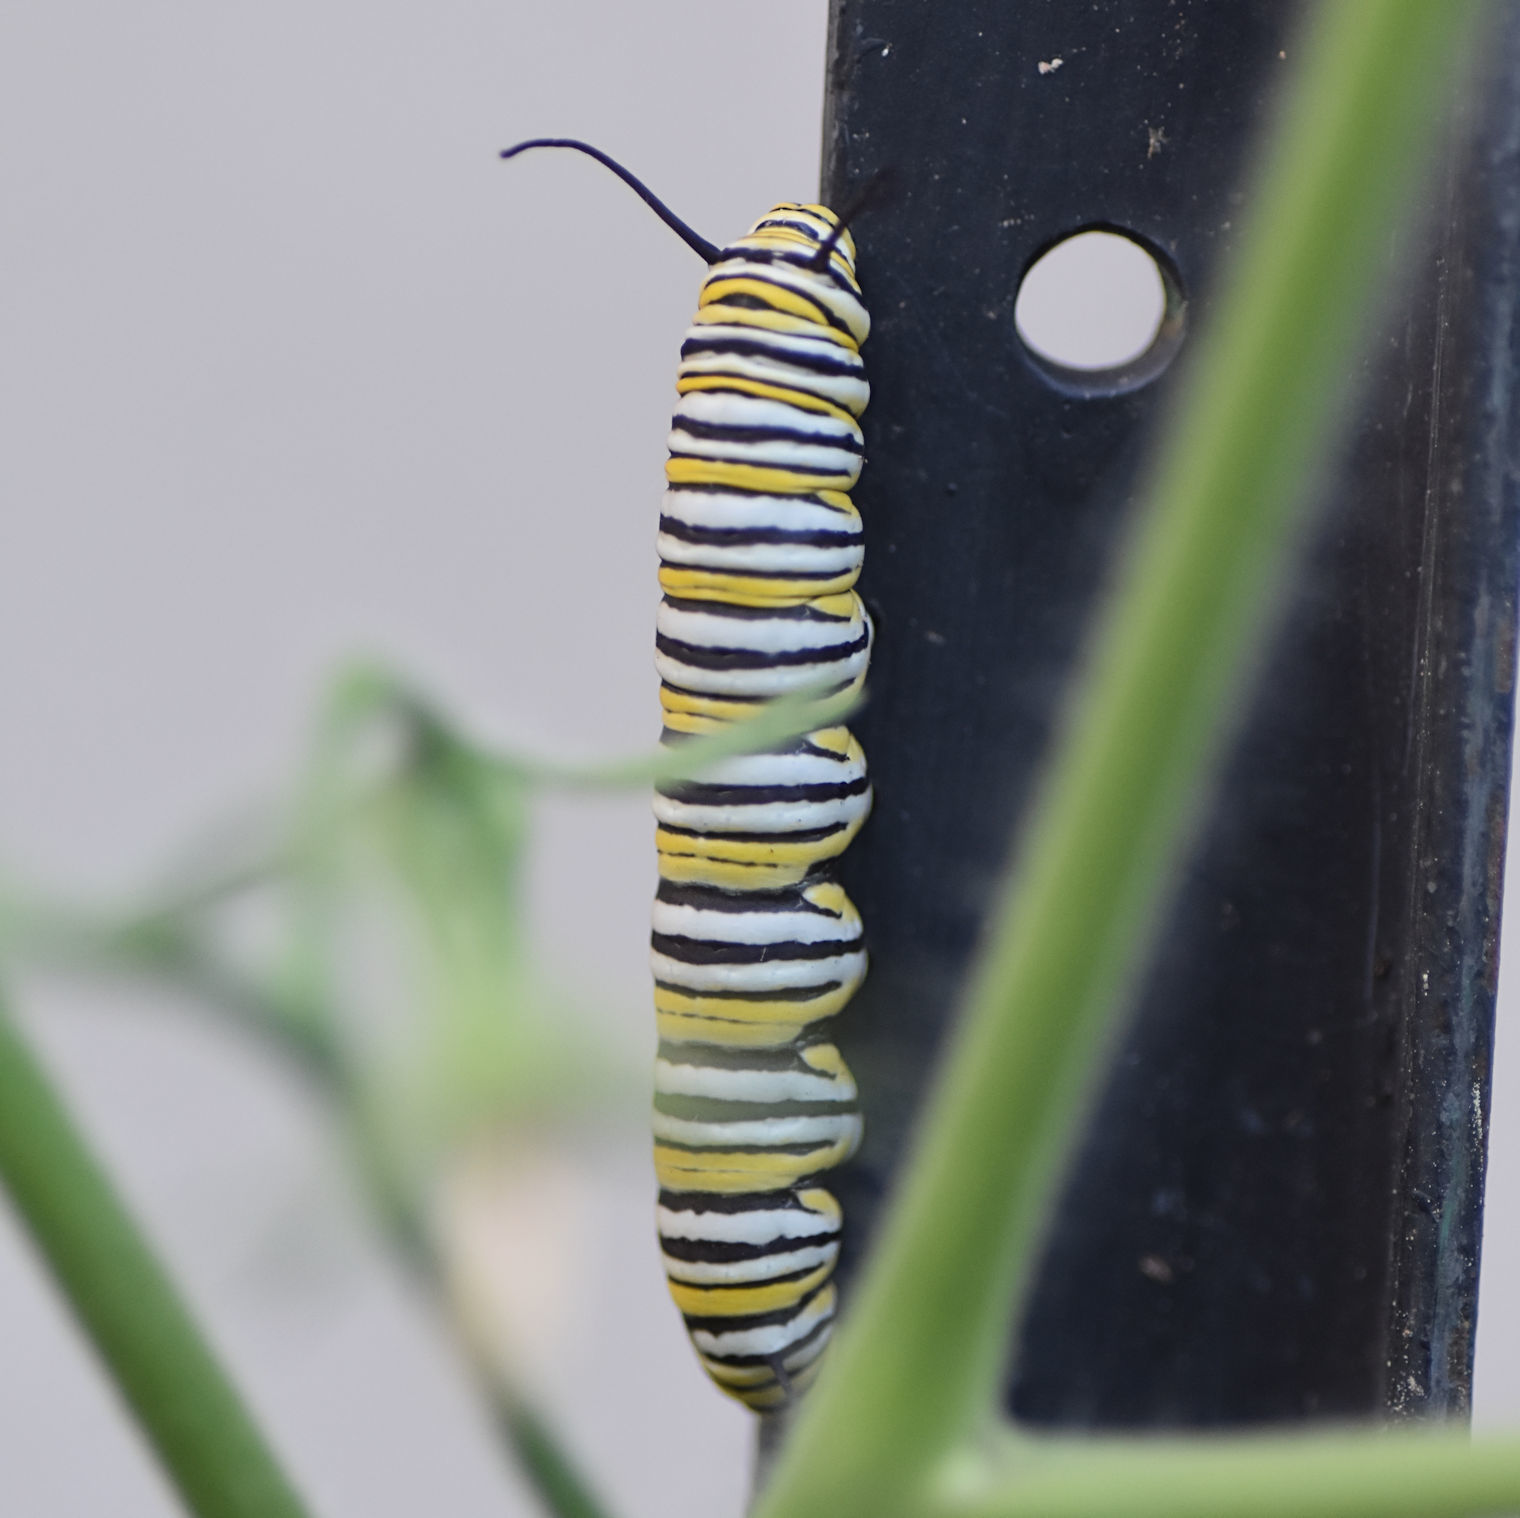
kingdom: Animalia
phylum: Arthropoda
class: Insecta
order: Lepidoptera
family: Nymphalidae
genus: Danaus
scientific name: Danaus plexippus
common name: Monarch
